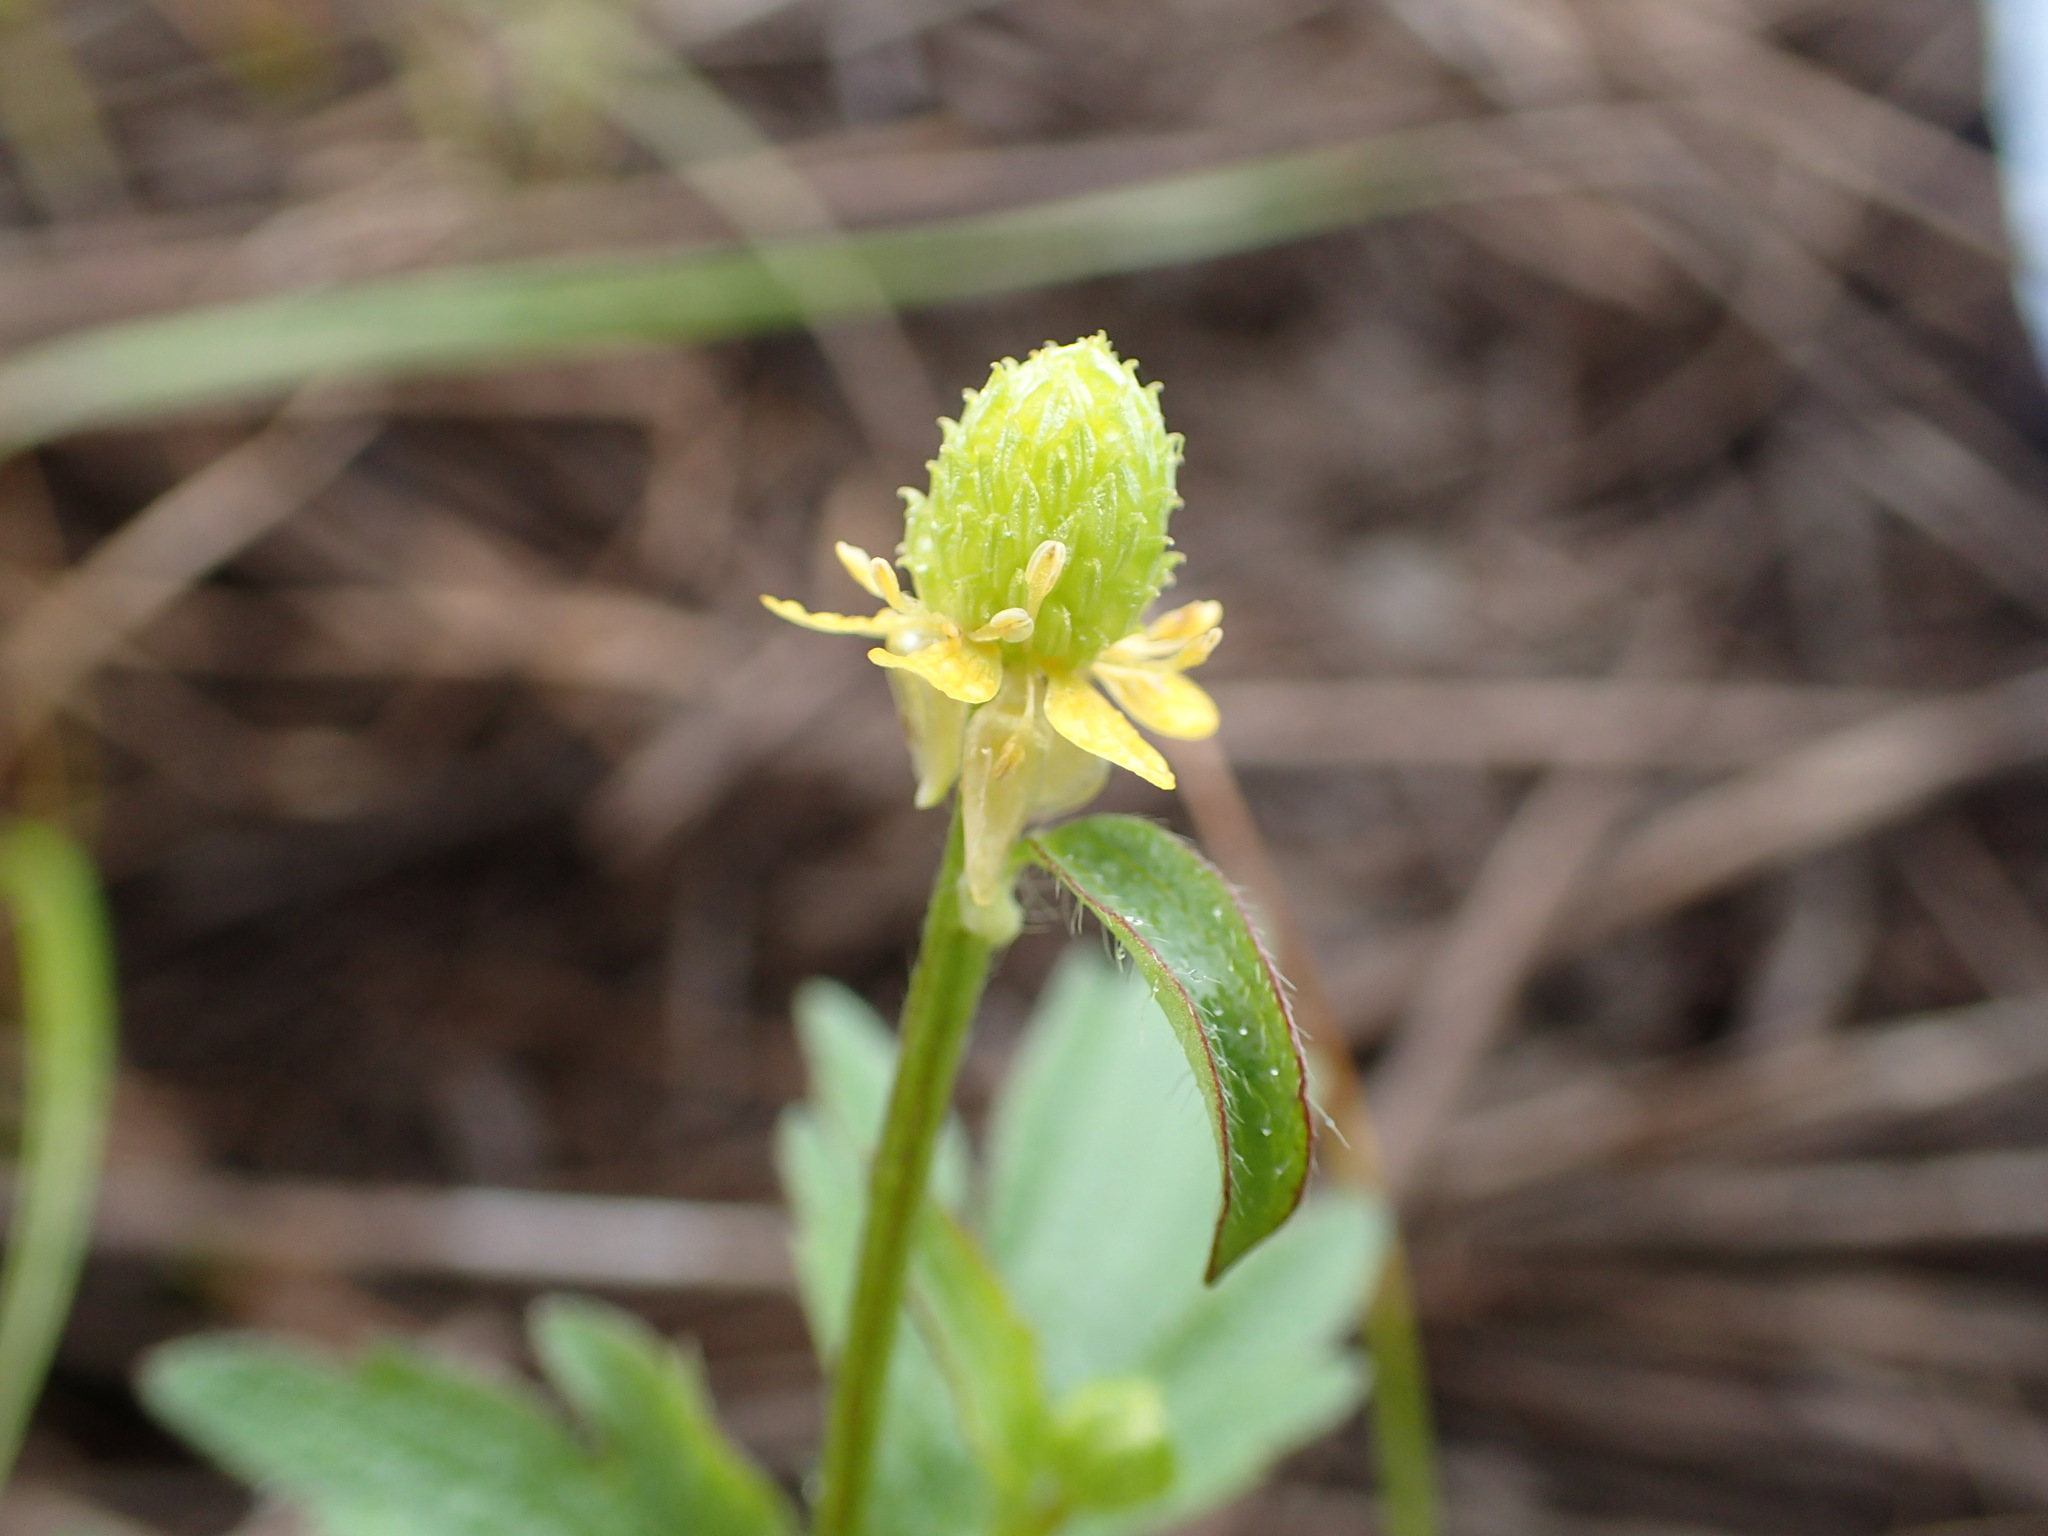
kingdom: Plantae
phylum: Tracheophyta
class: Magnoliopsida
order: Ranunculales
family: Ranunculaceae
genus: Ranunculus
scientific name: Ranunculus pensylvanicus
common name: Bristly buttercup
